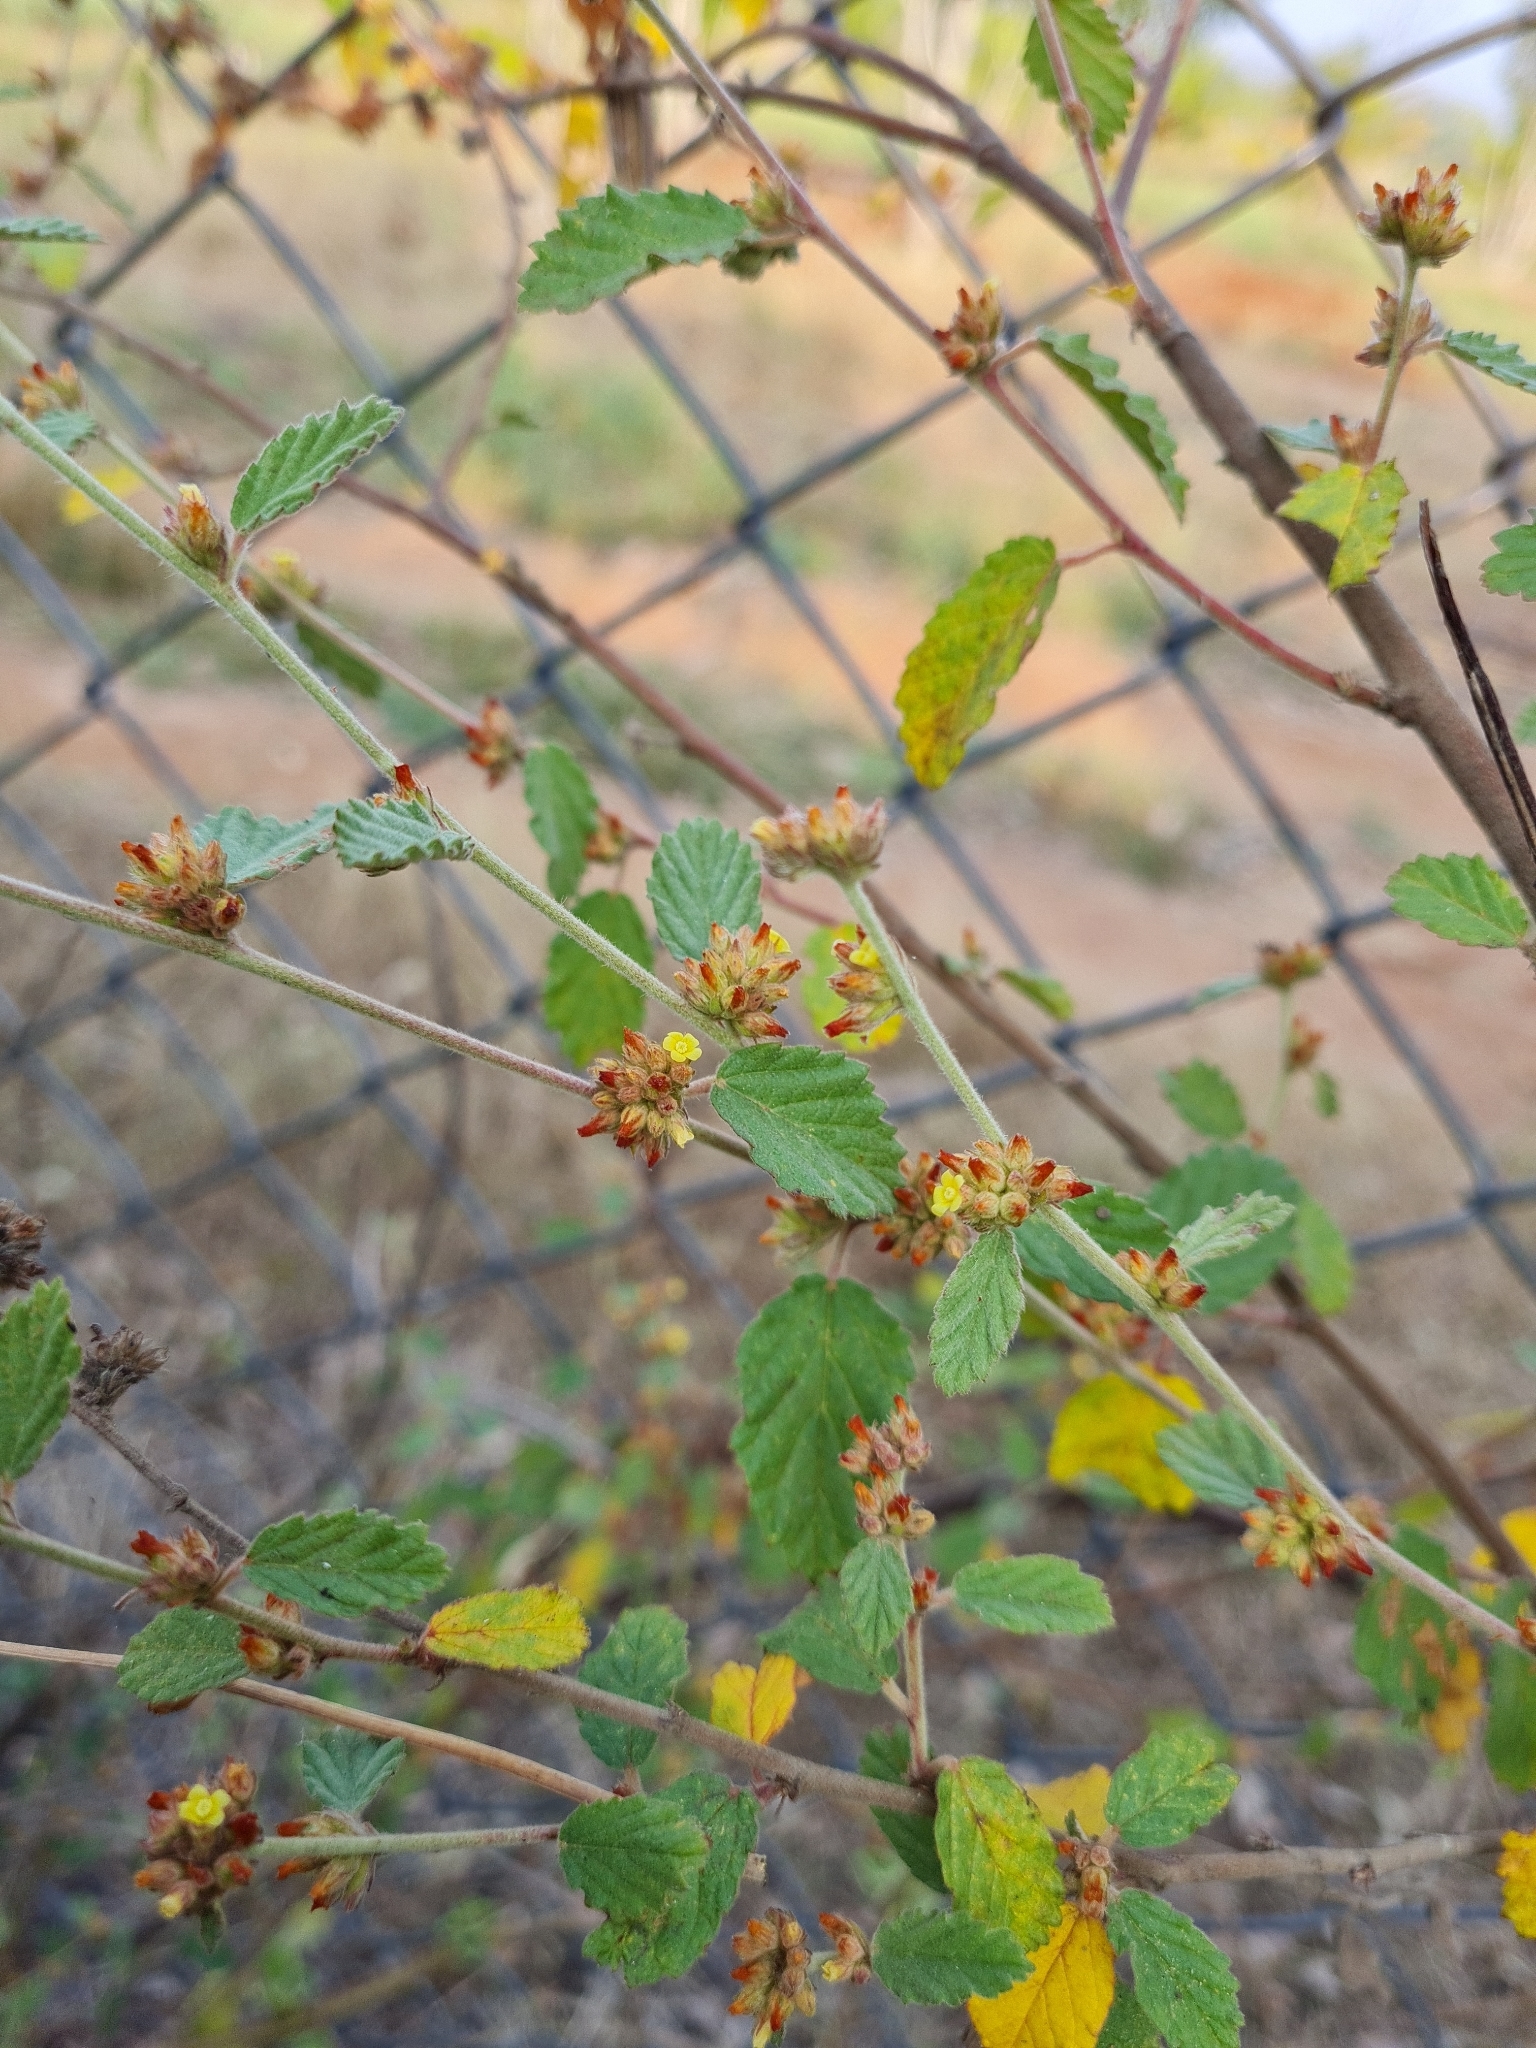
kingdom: Plantae
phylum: Tracheophyta
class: Magnoliopsida
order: Malvales
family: Malvaceae
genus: Waltheria
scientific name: Waltheria indica
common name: Leather-coat
